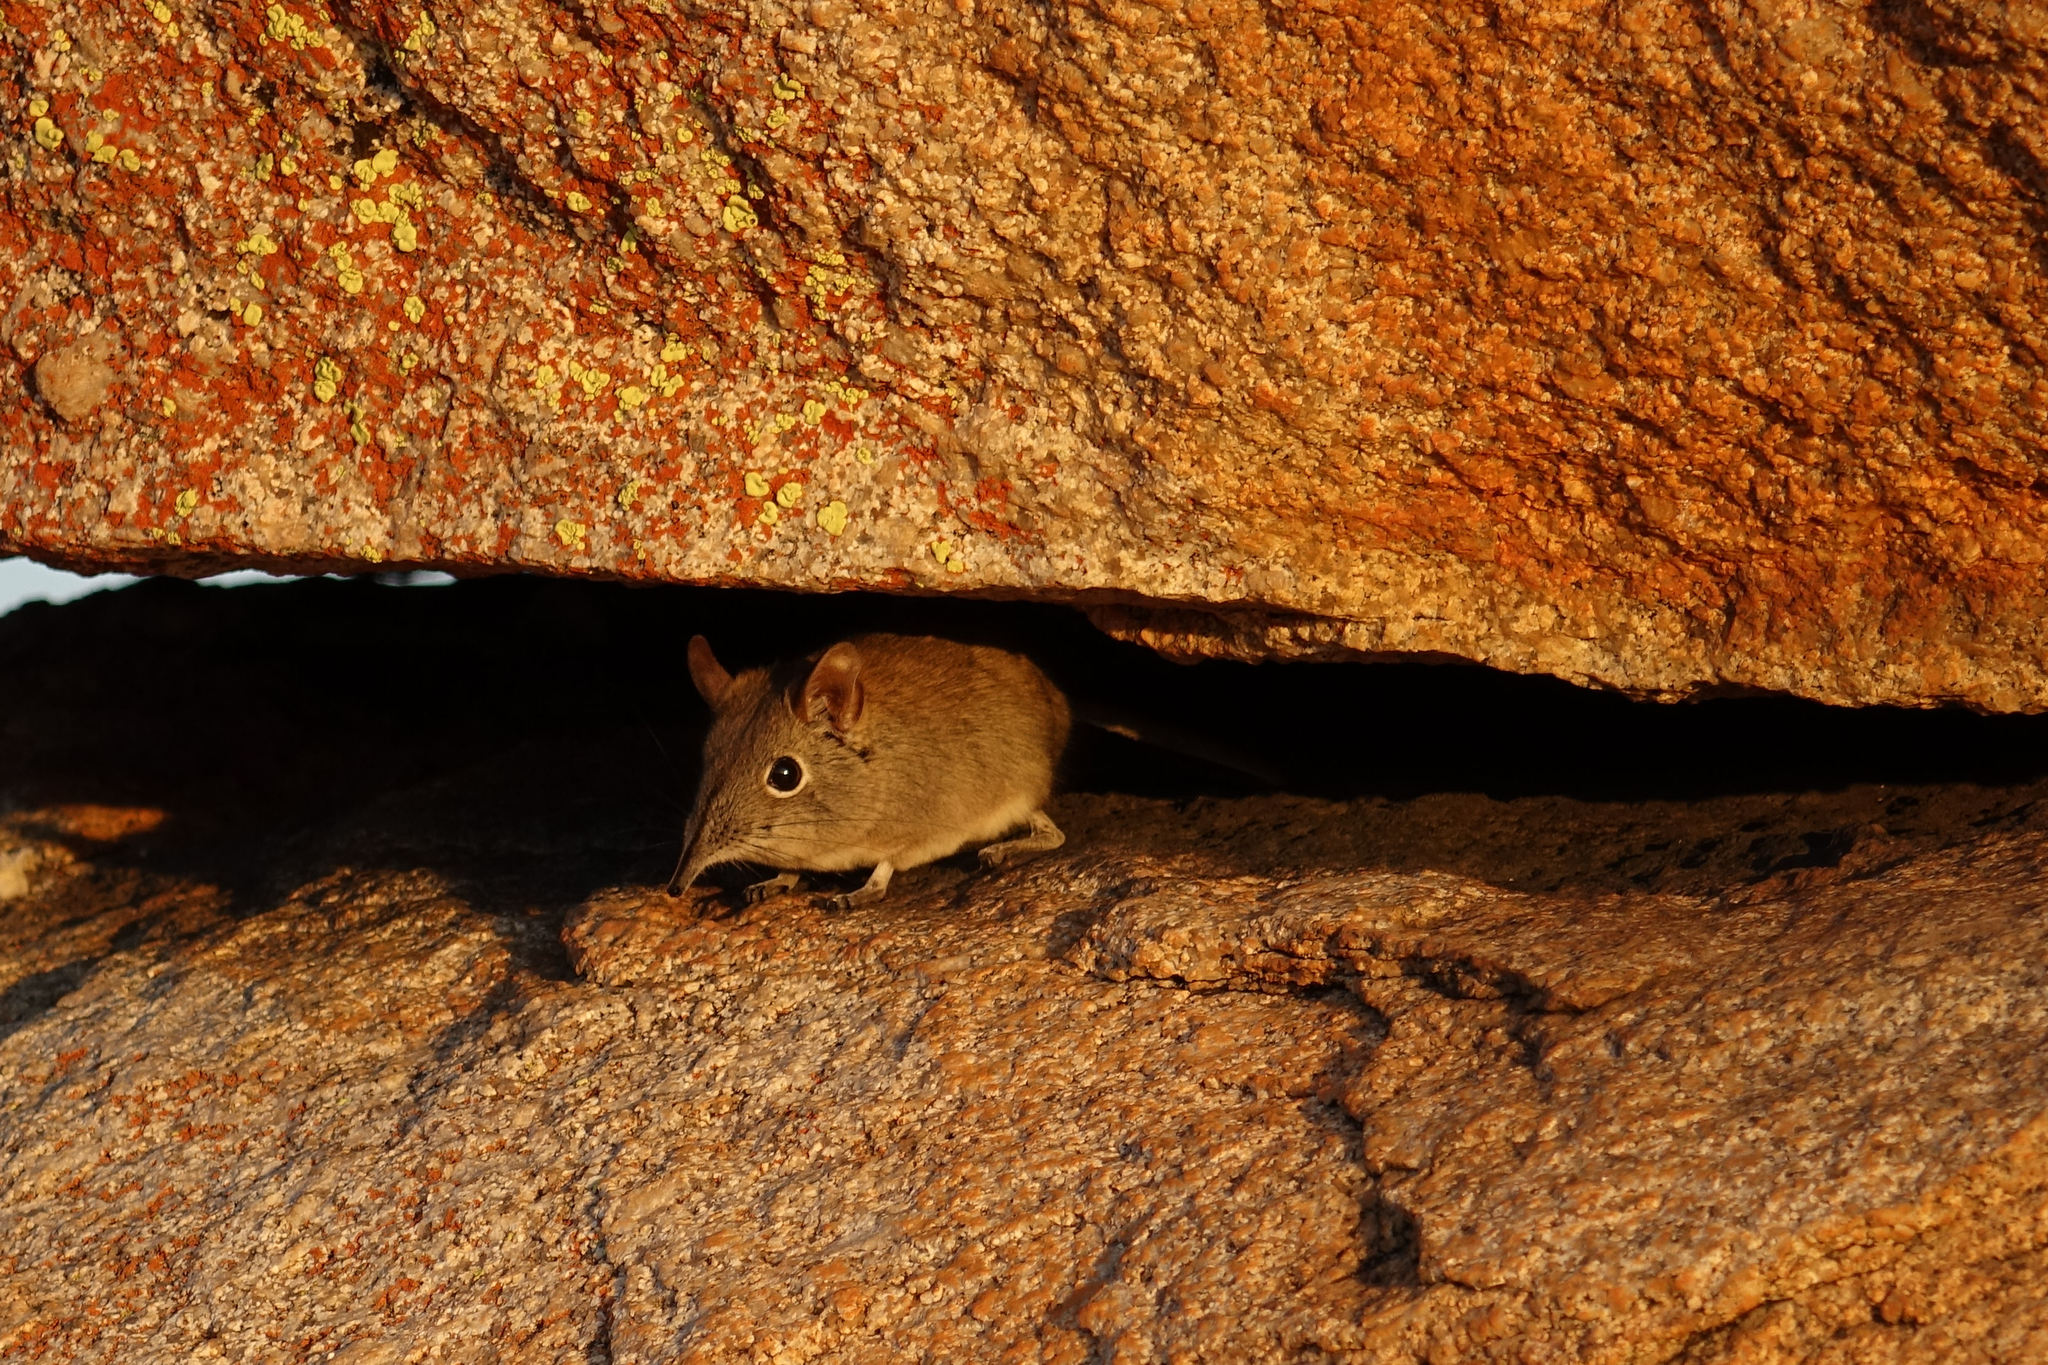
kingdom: Animalia
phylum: Chordata
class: Mammalia
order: Macroscelidea
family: Macroscelididae
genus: Elephantulus
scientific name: Elephantulus myurus
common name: Eastern rock elephant shrew
